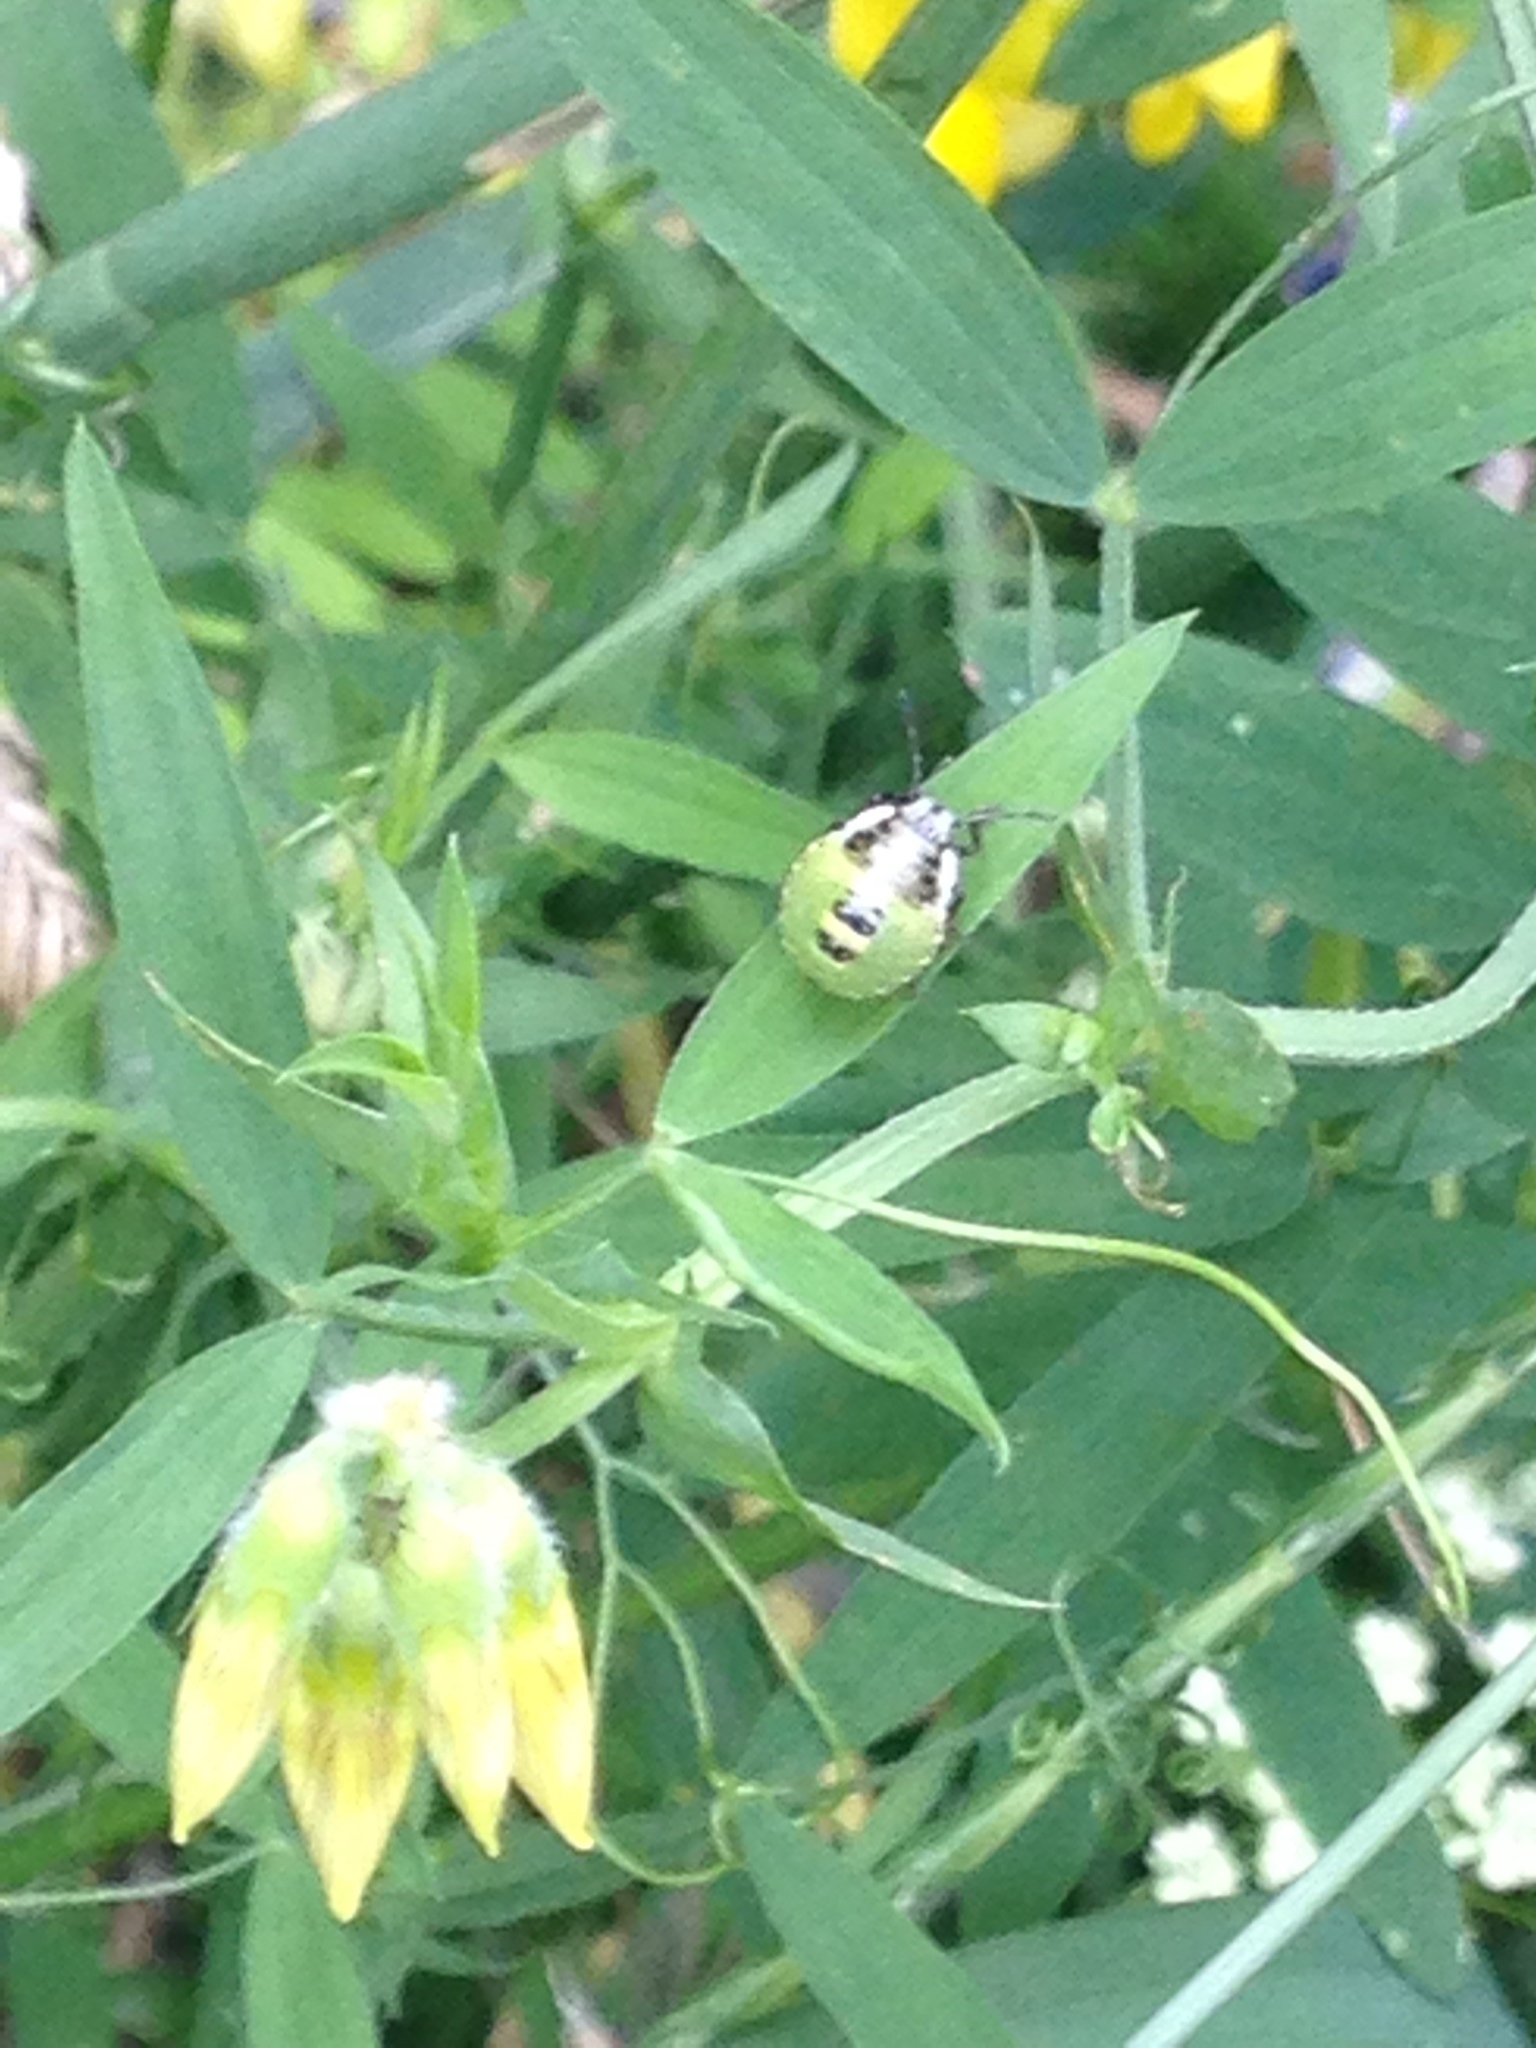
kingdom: Animalia
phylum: Arthropoda
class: Insecta
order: Hemiptera
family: Pentatomidae
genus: Palomena
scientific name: Palomena prasina
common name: Green shieldbug
